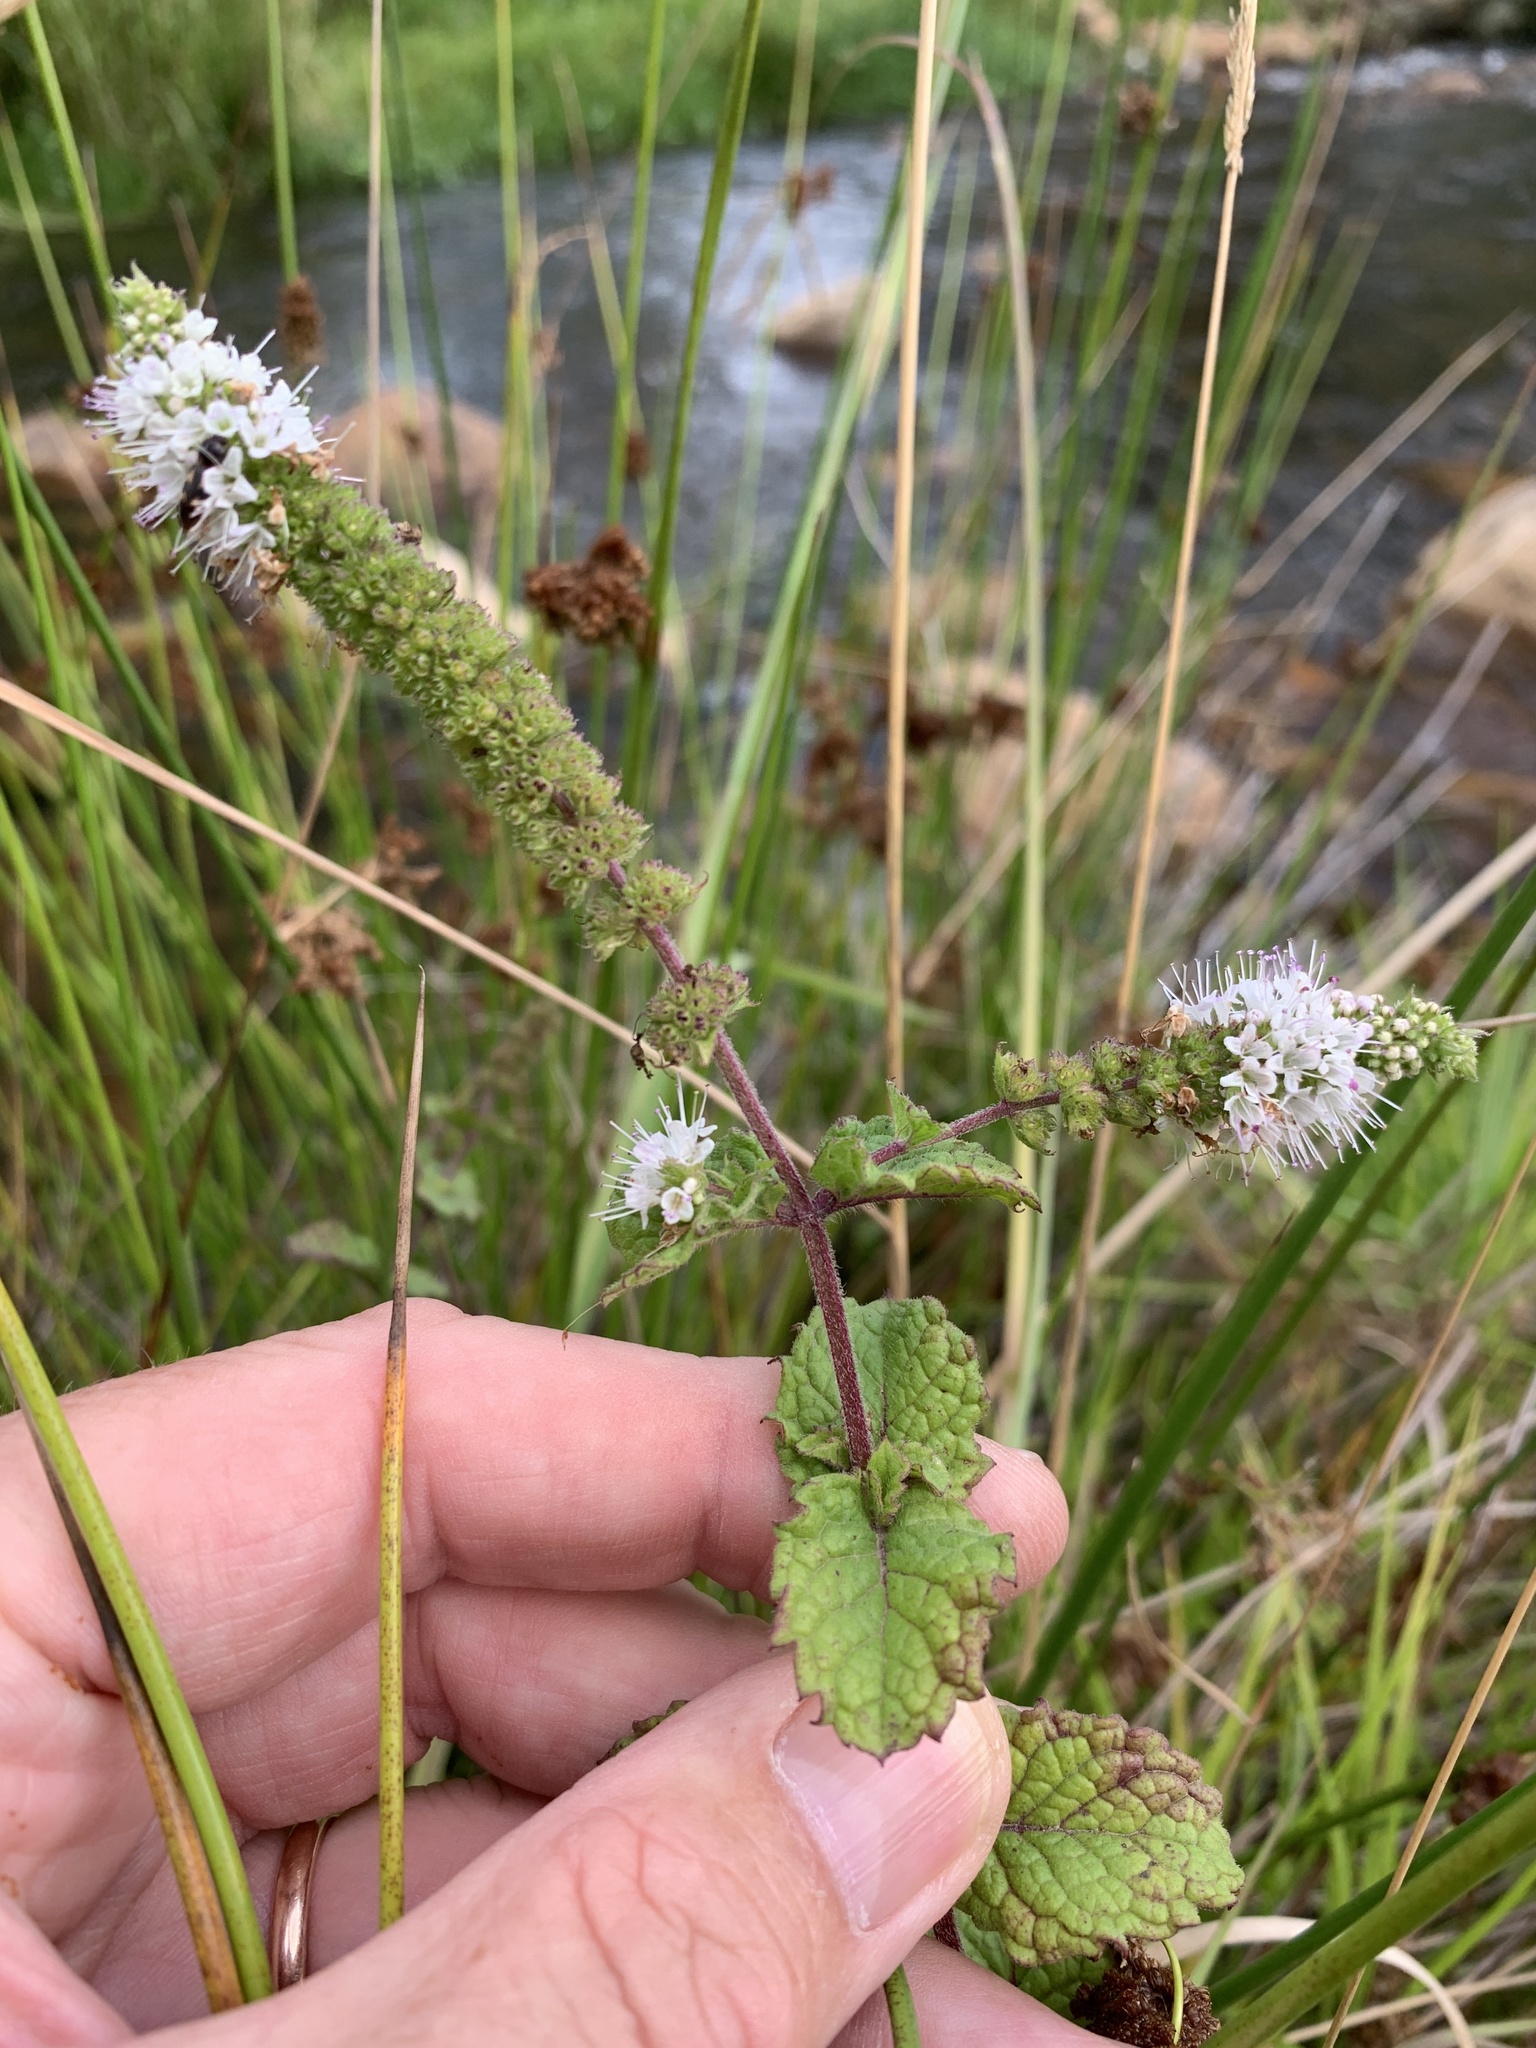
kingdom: Plantae
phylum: Tracheophyta
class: Magnoliopsida
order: Lamiales
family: Lamiaceae
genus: Mentha
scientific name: Mentha suaveolens
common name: Apple mint
